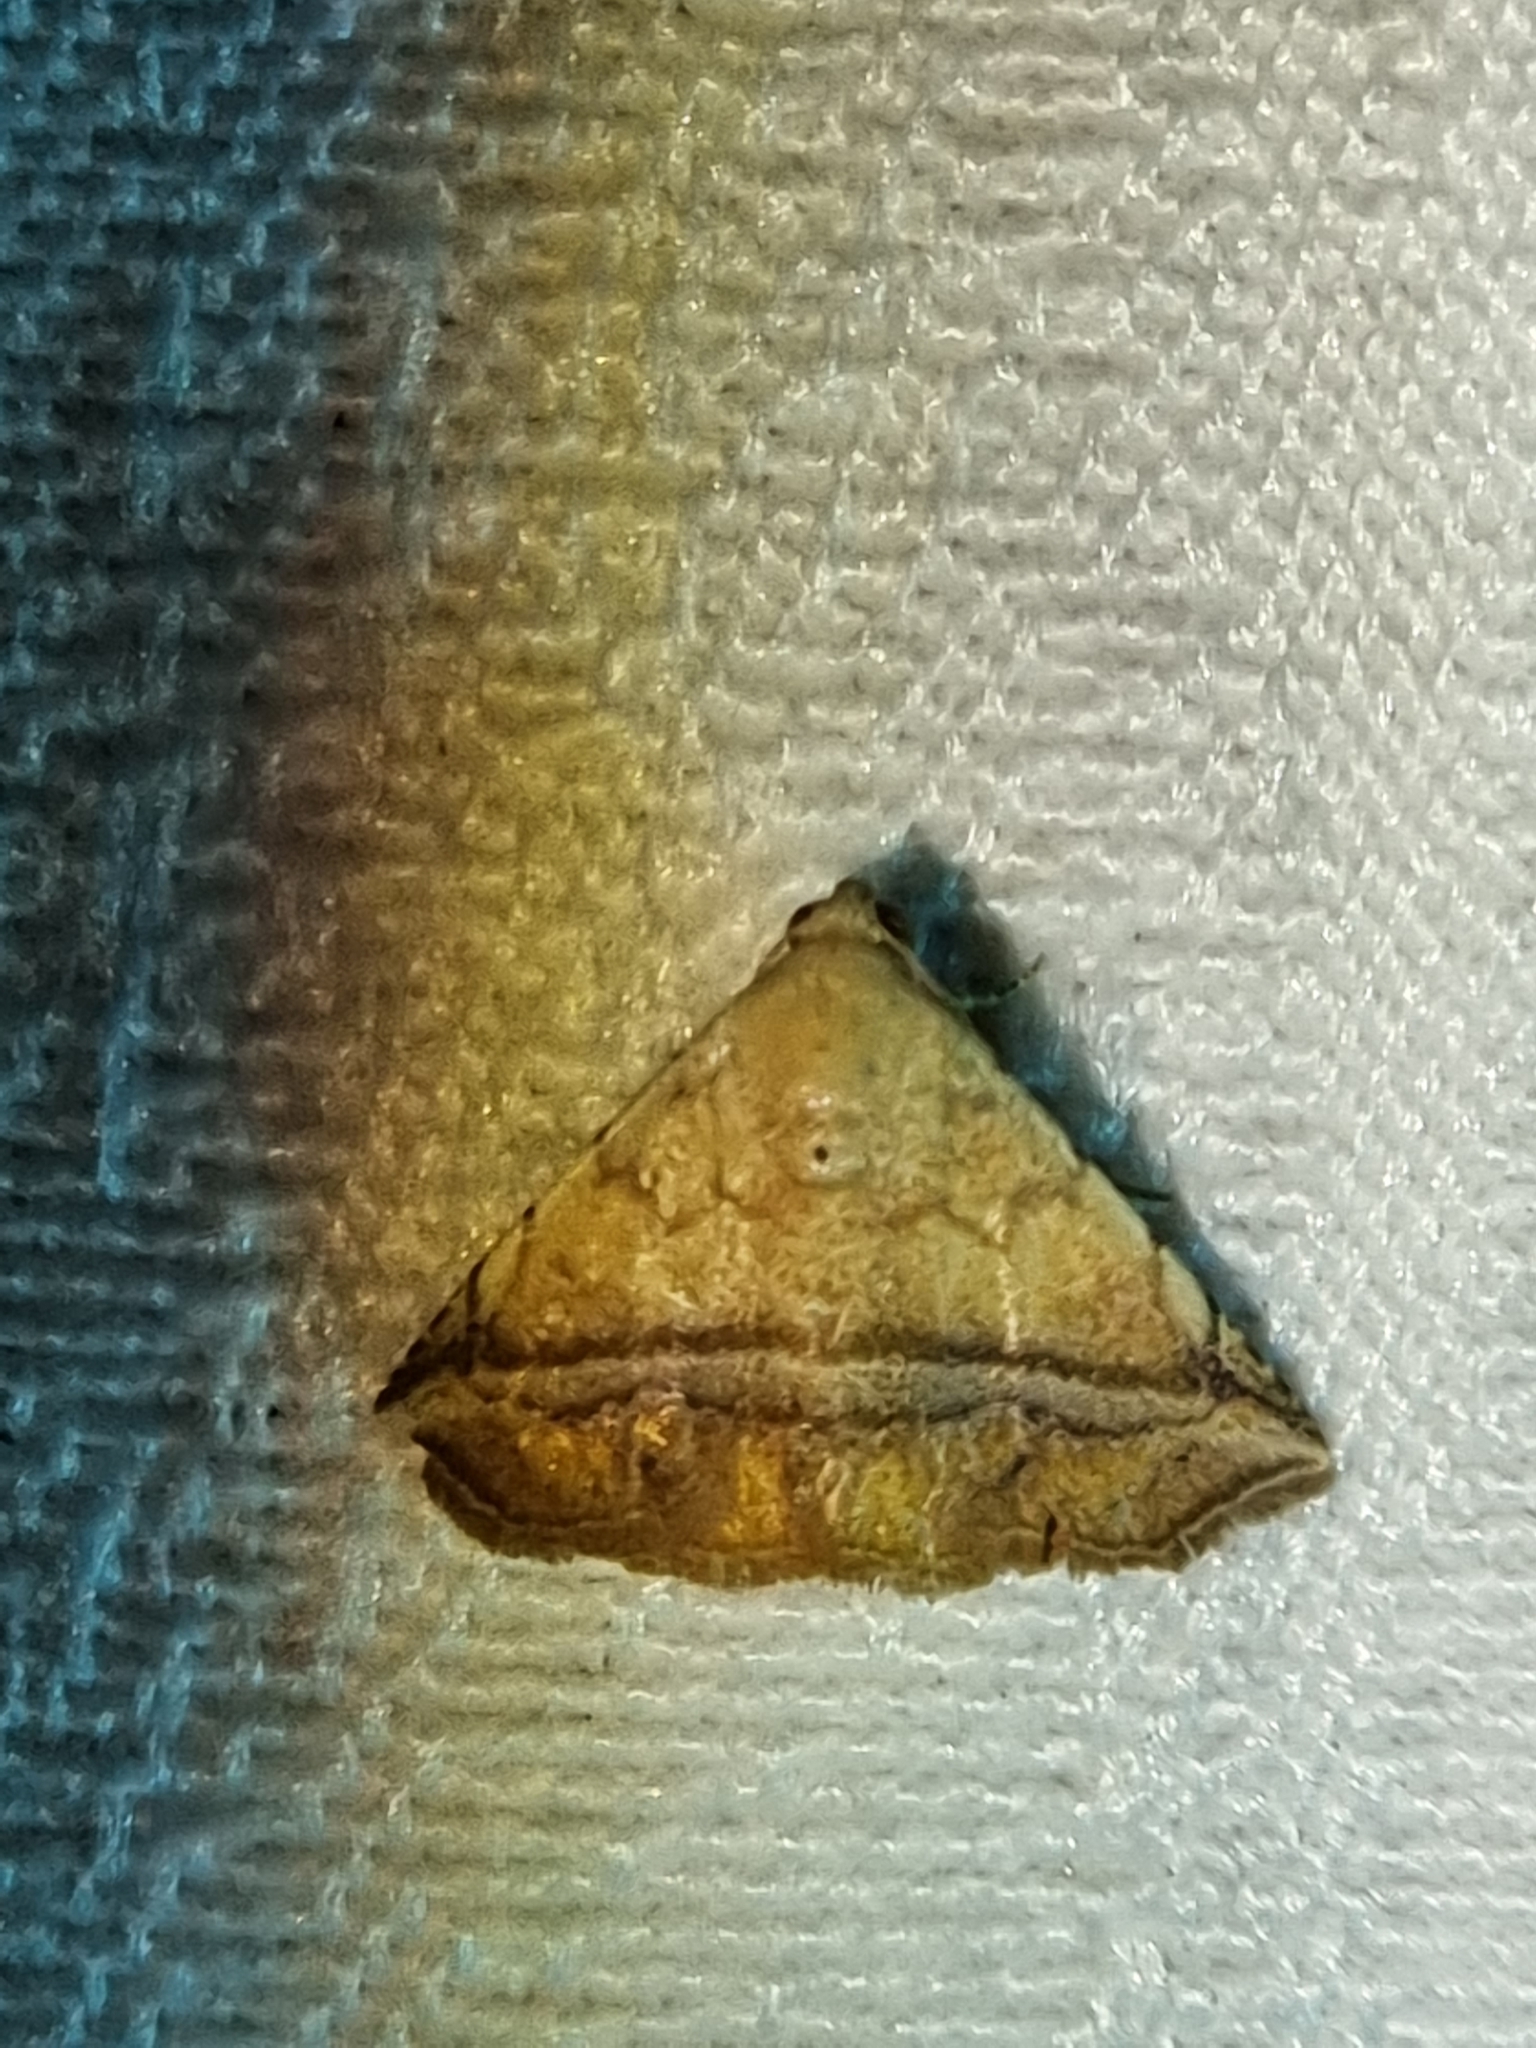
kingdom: Animalia
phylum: Arthropoda
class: Insecta
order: Lepidoptera
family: Noctuidae
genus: Eublemma
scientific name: Eublemma crassiuscula
